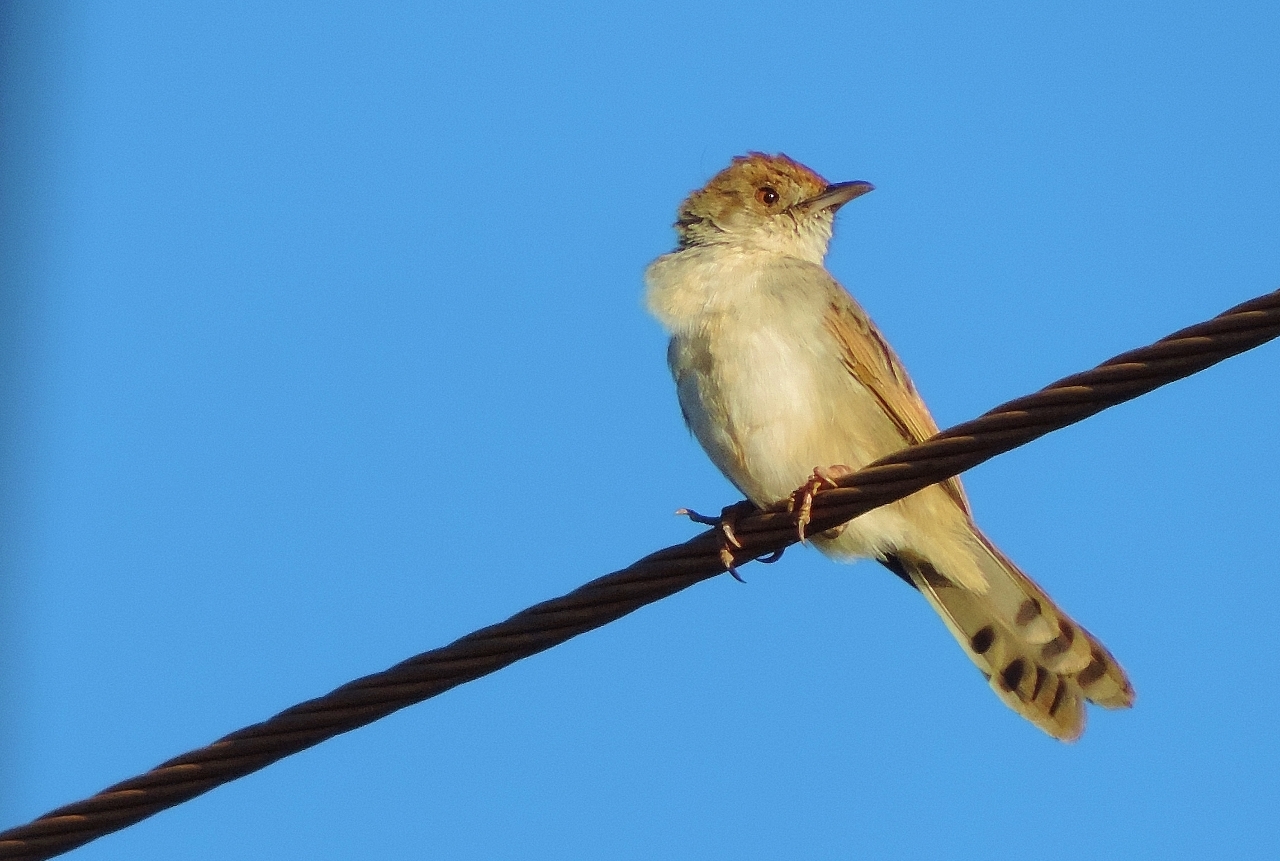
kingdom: Animalia
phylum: Chordata
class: Aves
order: Passeriformes
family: Cisticolidae
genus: Cisticola
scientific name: Cisticola chiniana
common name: Rattling cisticola
